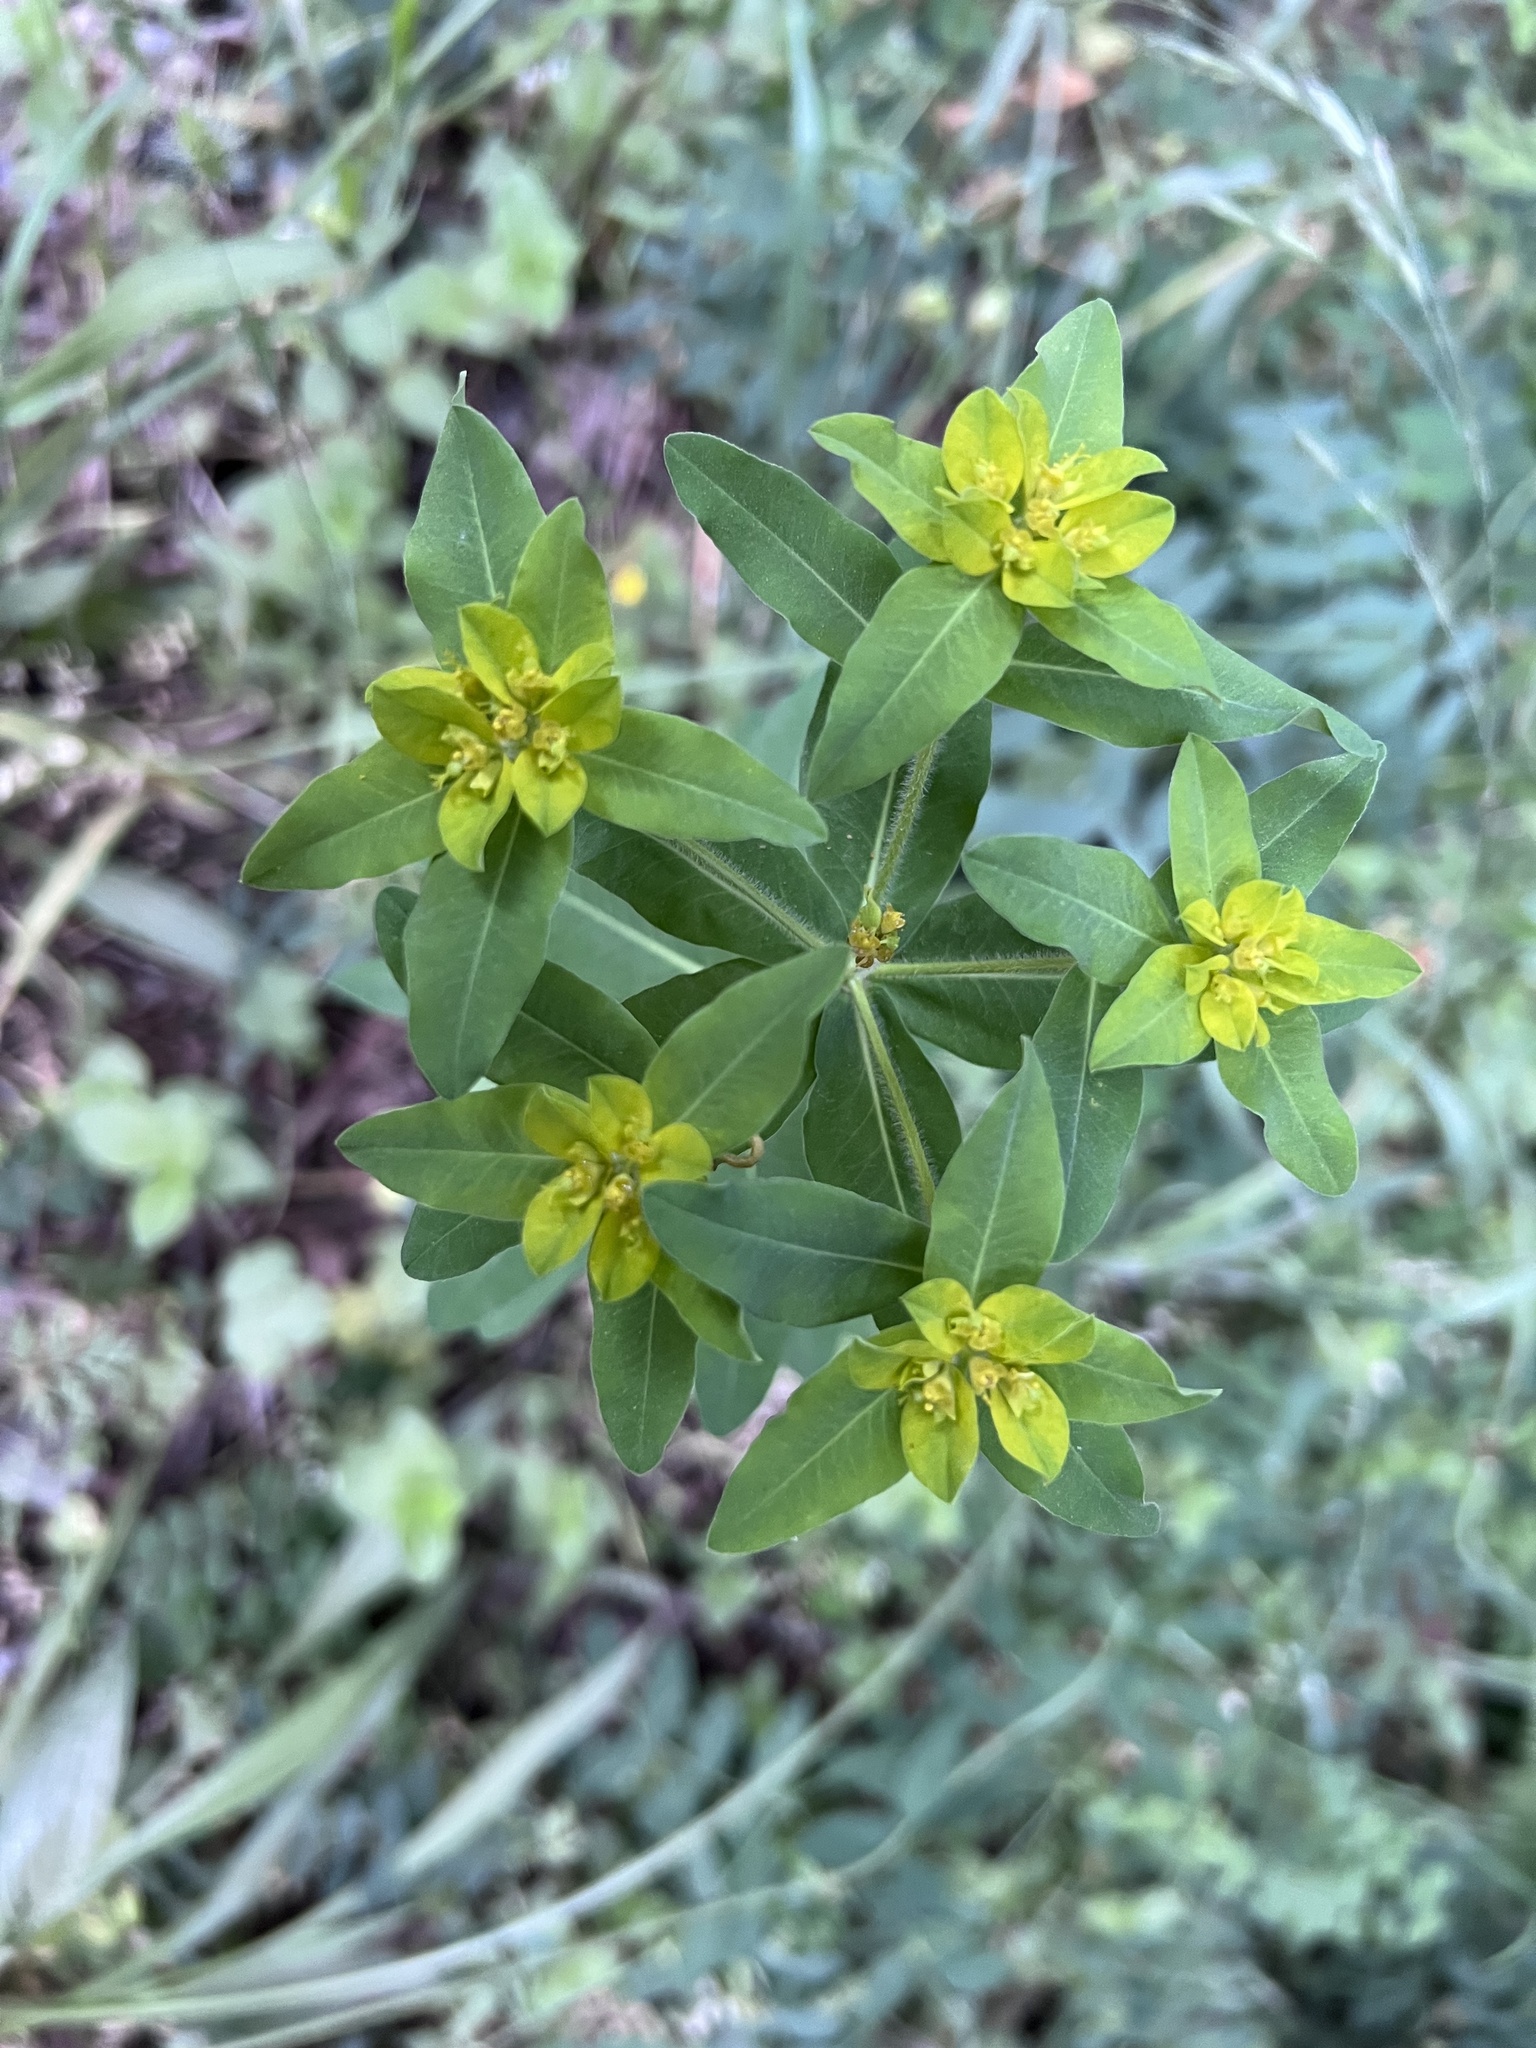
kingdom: Plantae
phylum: Tracheophyta
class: Magnoliopsida
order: Malpighiales
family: Euphorbiaceae
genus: Euphorbia
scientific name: Euphorbia oblongata
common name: Balkan spurge
